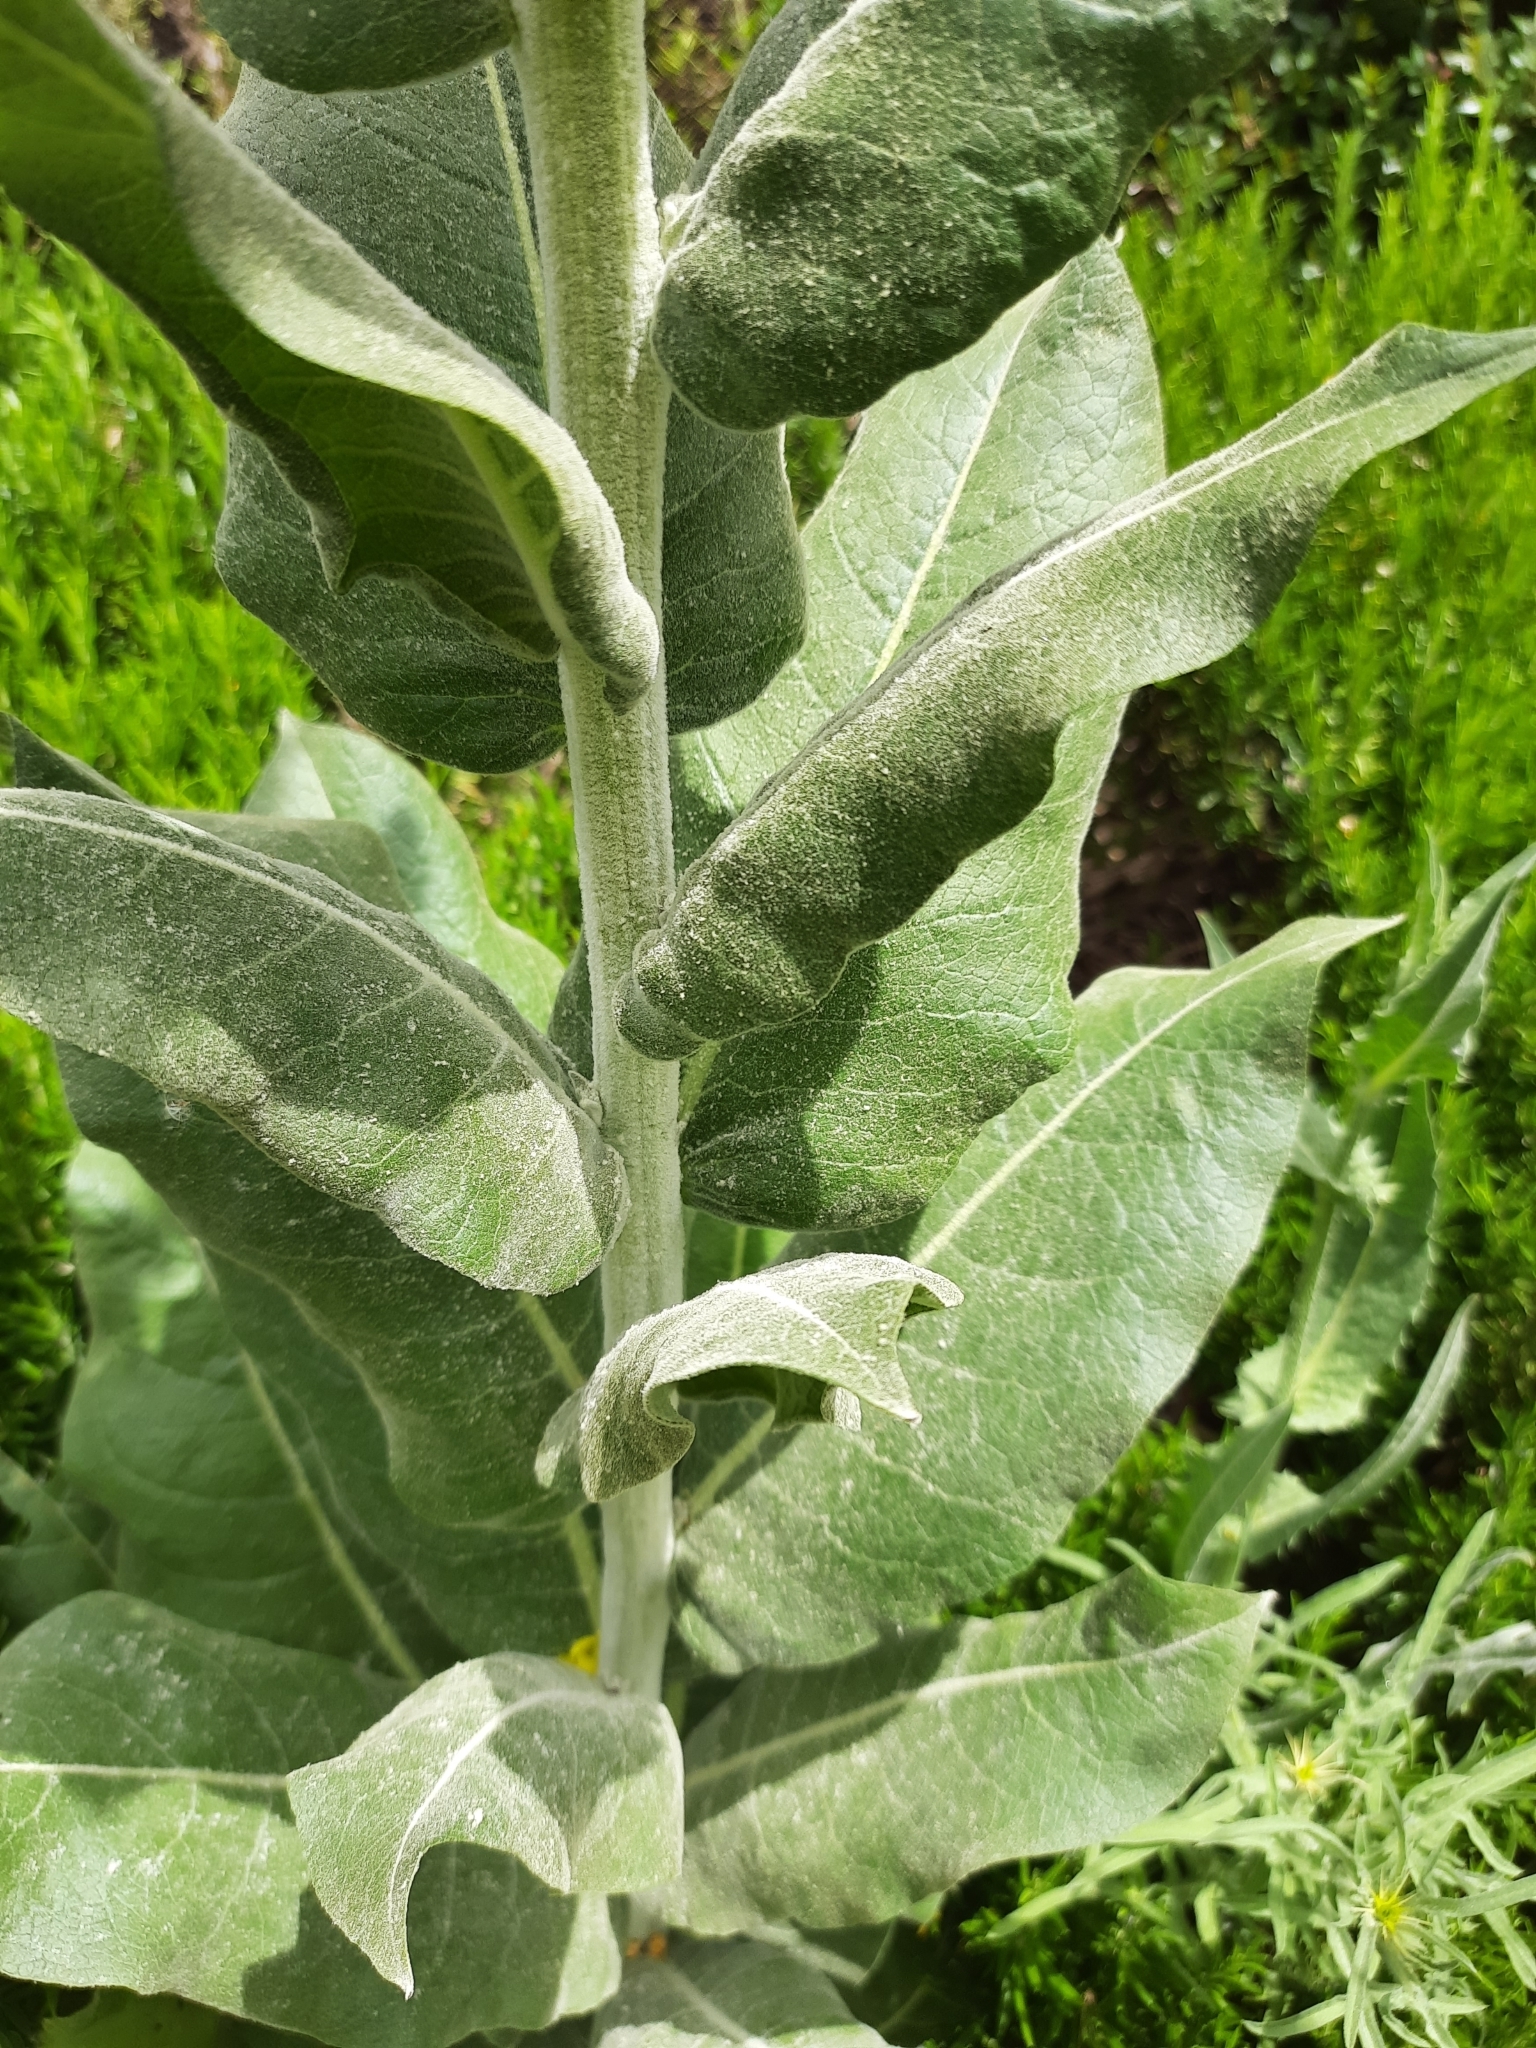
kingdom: Plantae
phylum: Tracheophyta
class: Magnoliopsida
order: Lamiales
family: Scrophulariaceae
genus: Verbascum
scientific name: Verbascum pulverulentum
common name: Broad-leaf mullein
